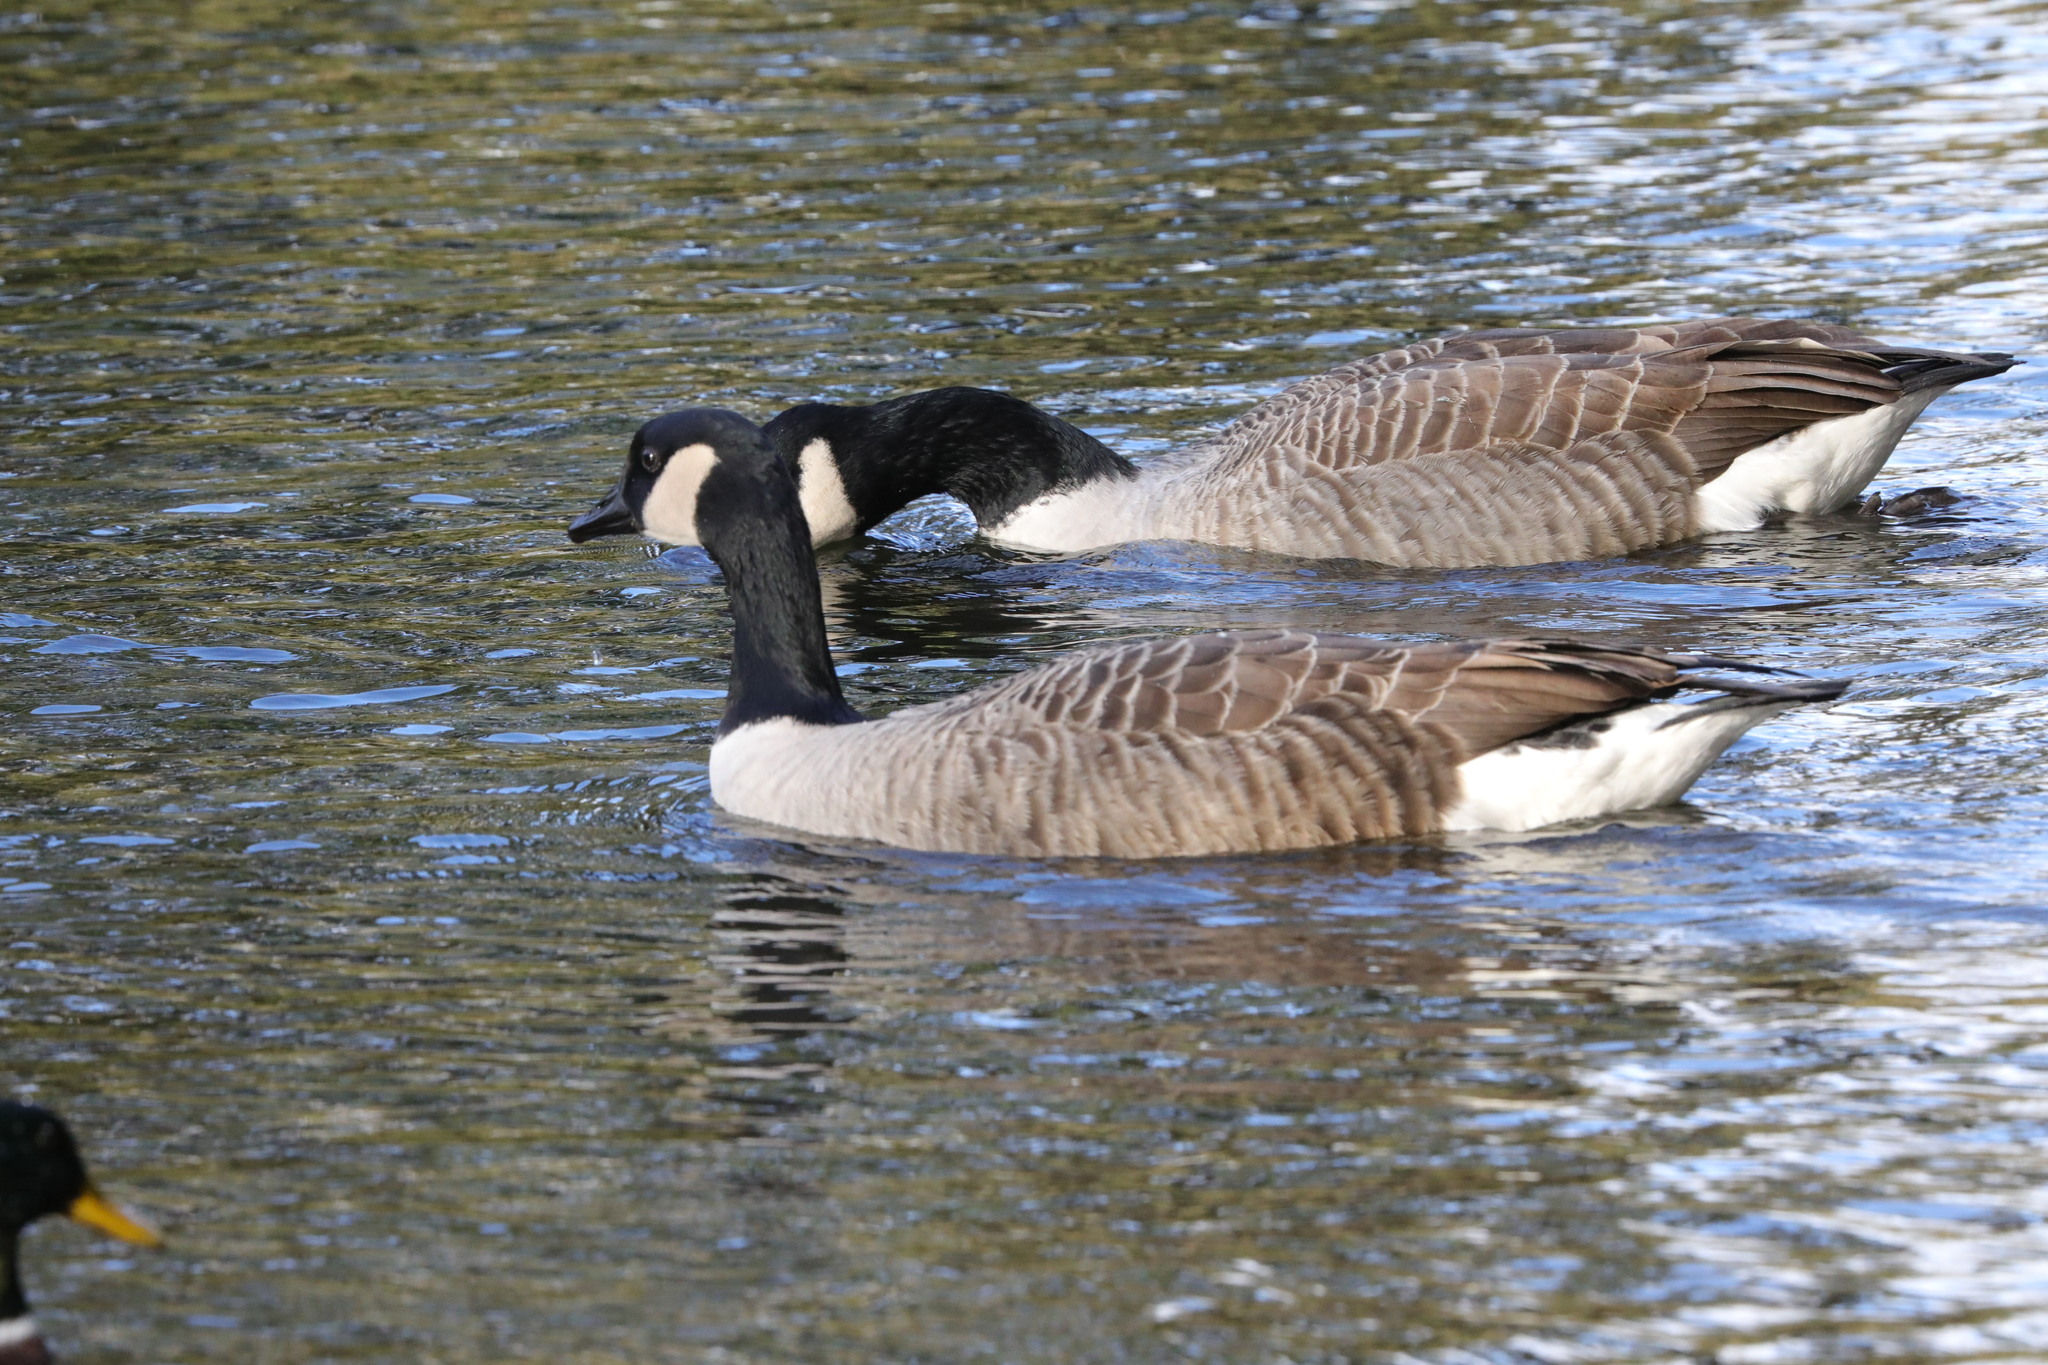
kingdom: Animalia
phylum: Chordata
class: Aves
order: Anseriformes
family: Anatidae
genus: Branta
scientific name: Branta canadensis
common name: Canada goose
